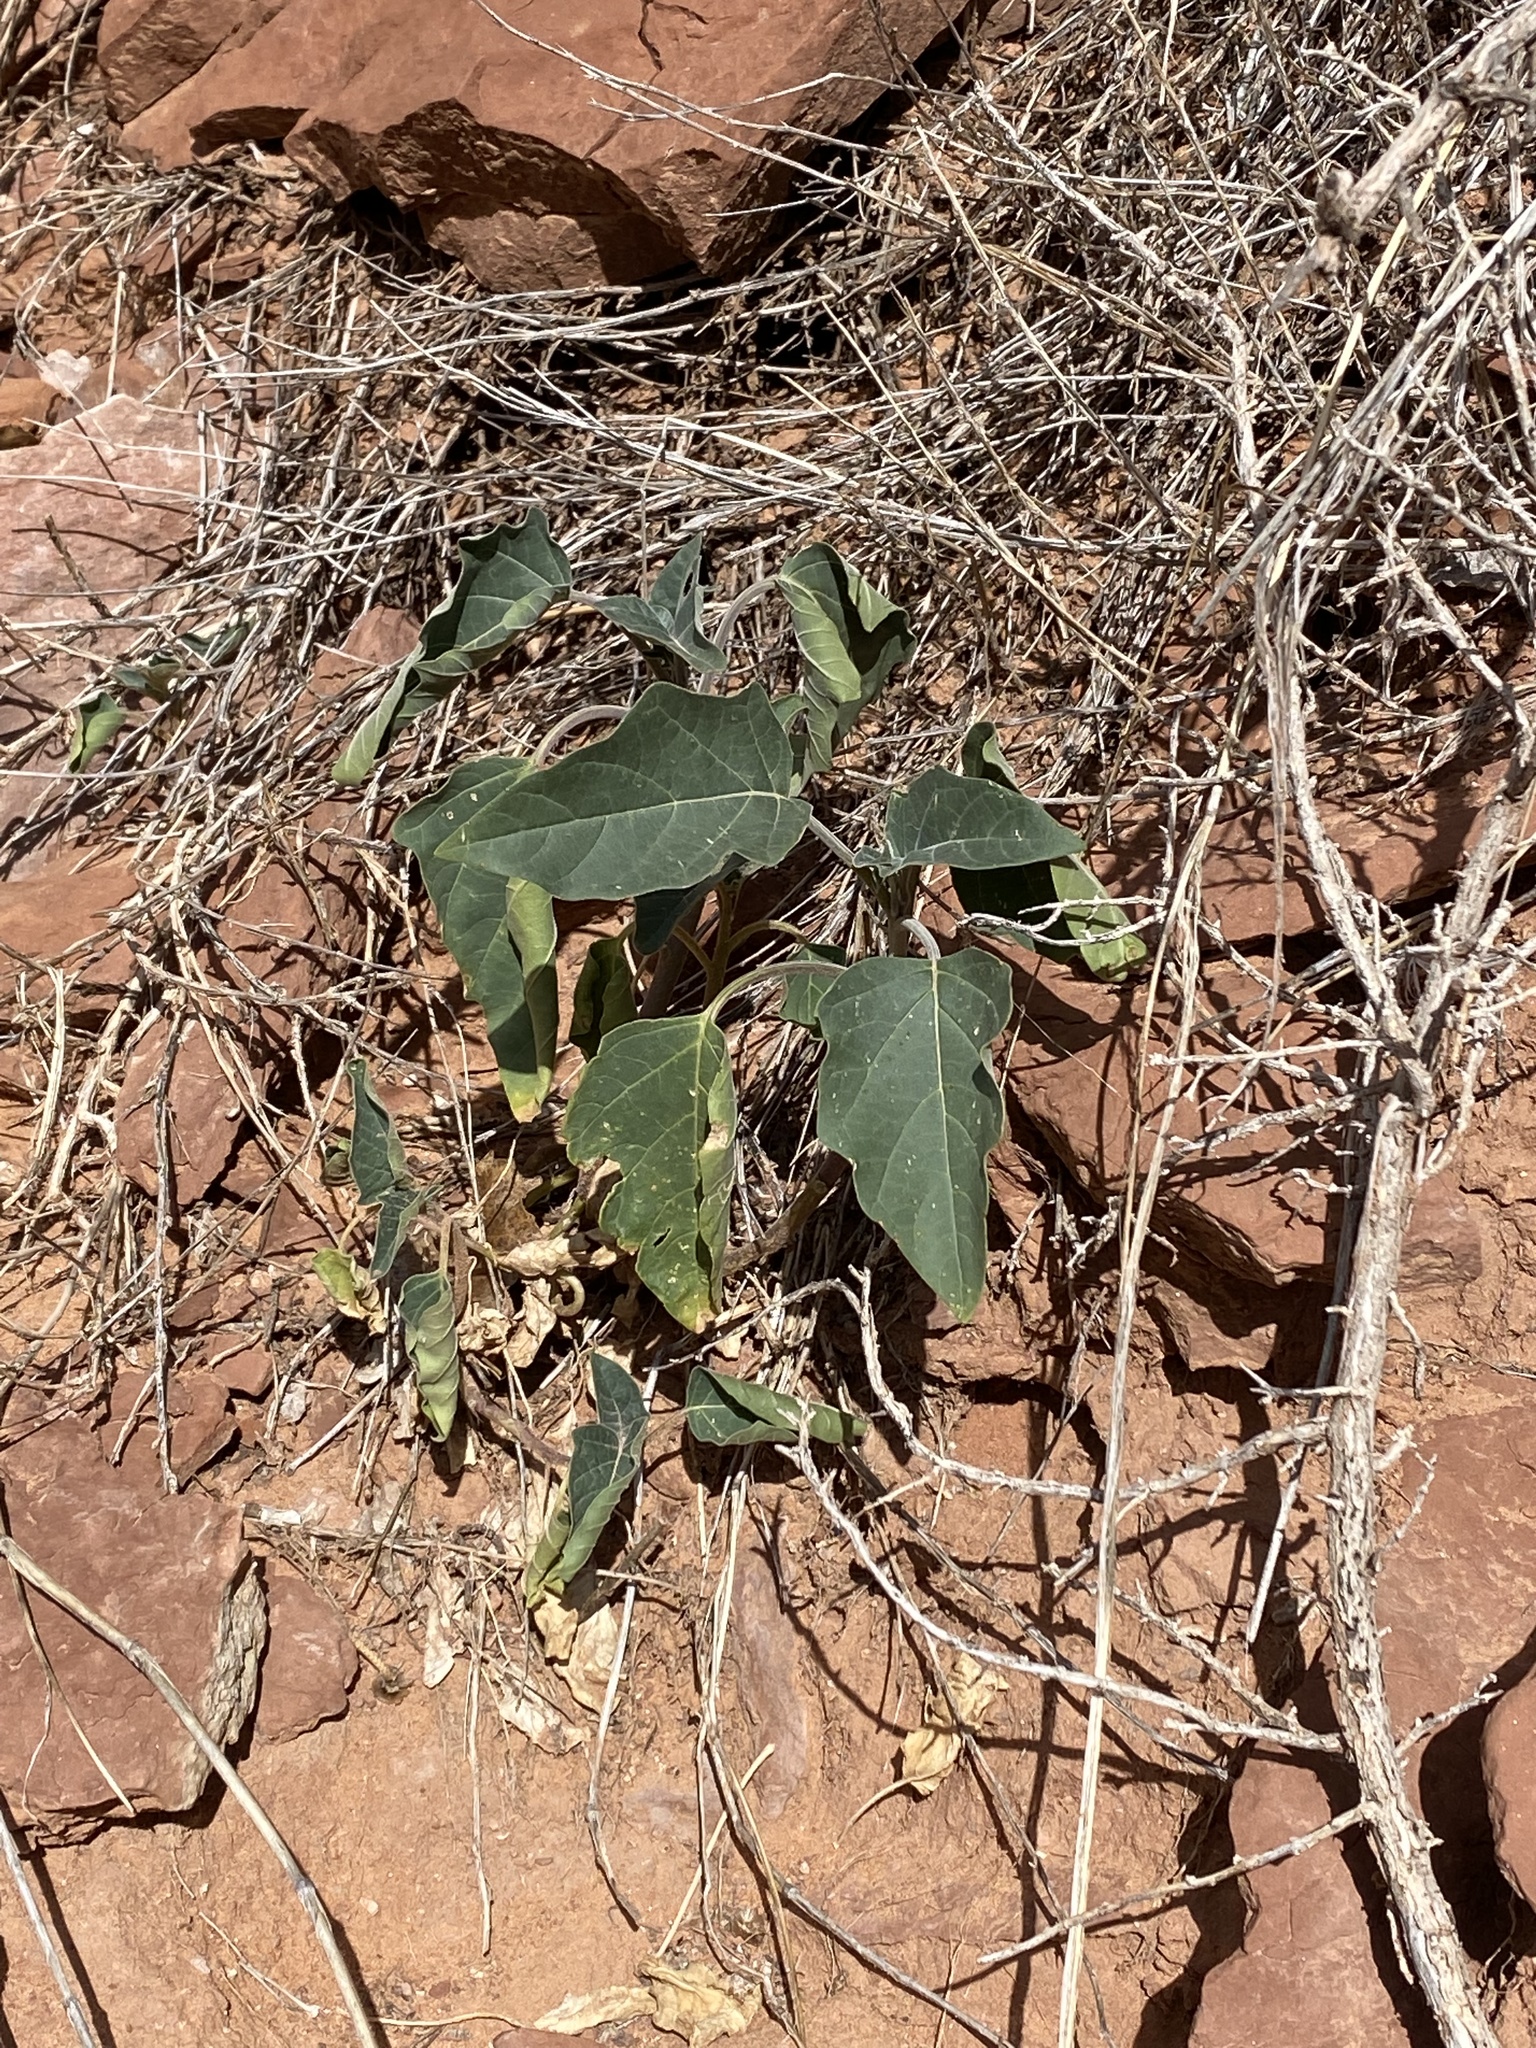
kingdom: Plantae
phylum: Tracheophyta
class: Magnoliopsida
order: Solanales
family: Solanaceae
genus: Datura
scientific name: Datura wrightii
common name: Sacred thorn-apple
